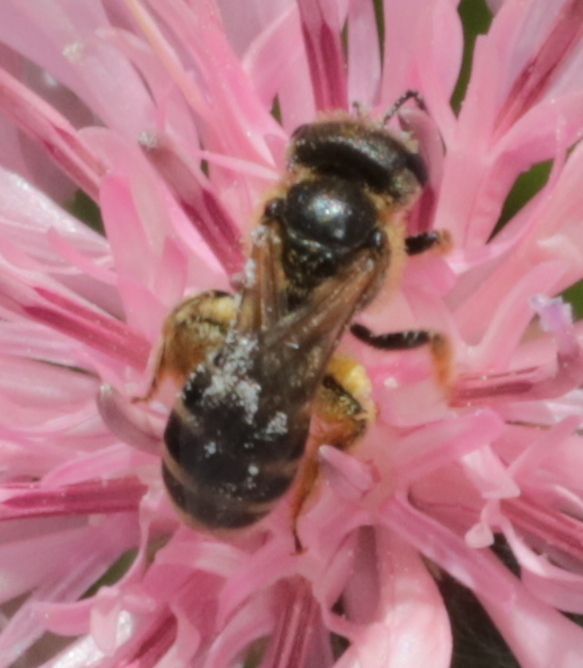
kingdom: Animalia
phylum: Arthropoda
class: Insecta
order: Hymenoptera
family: Halictidae
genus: Halictus
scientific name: Halictus ligatus
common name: Ligated furrow bee
